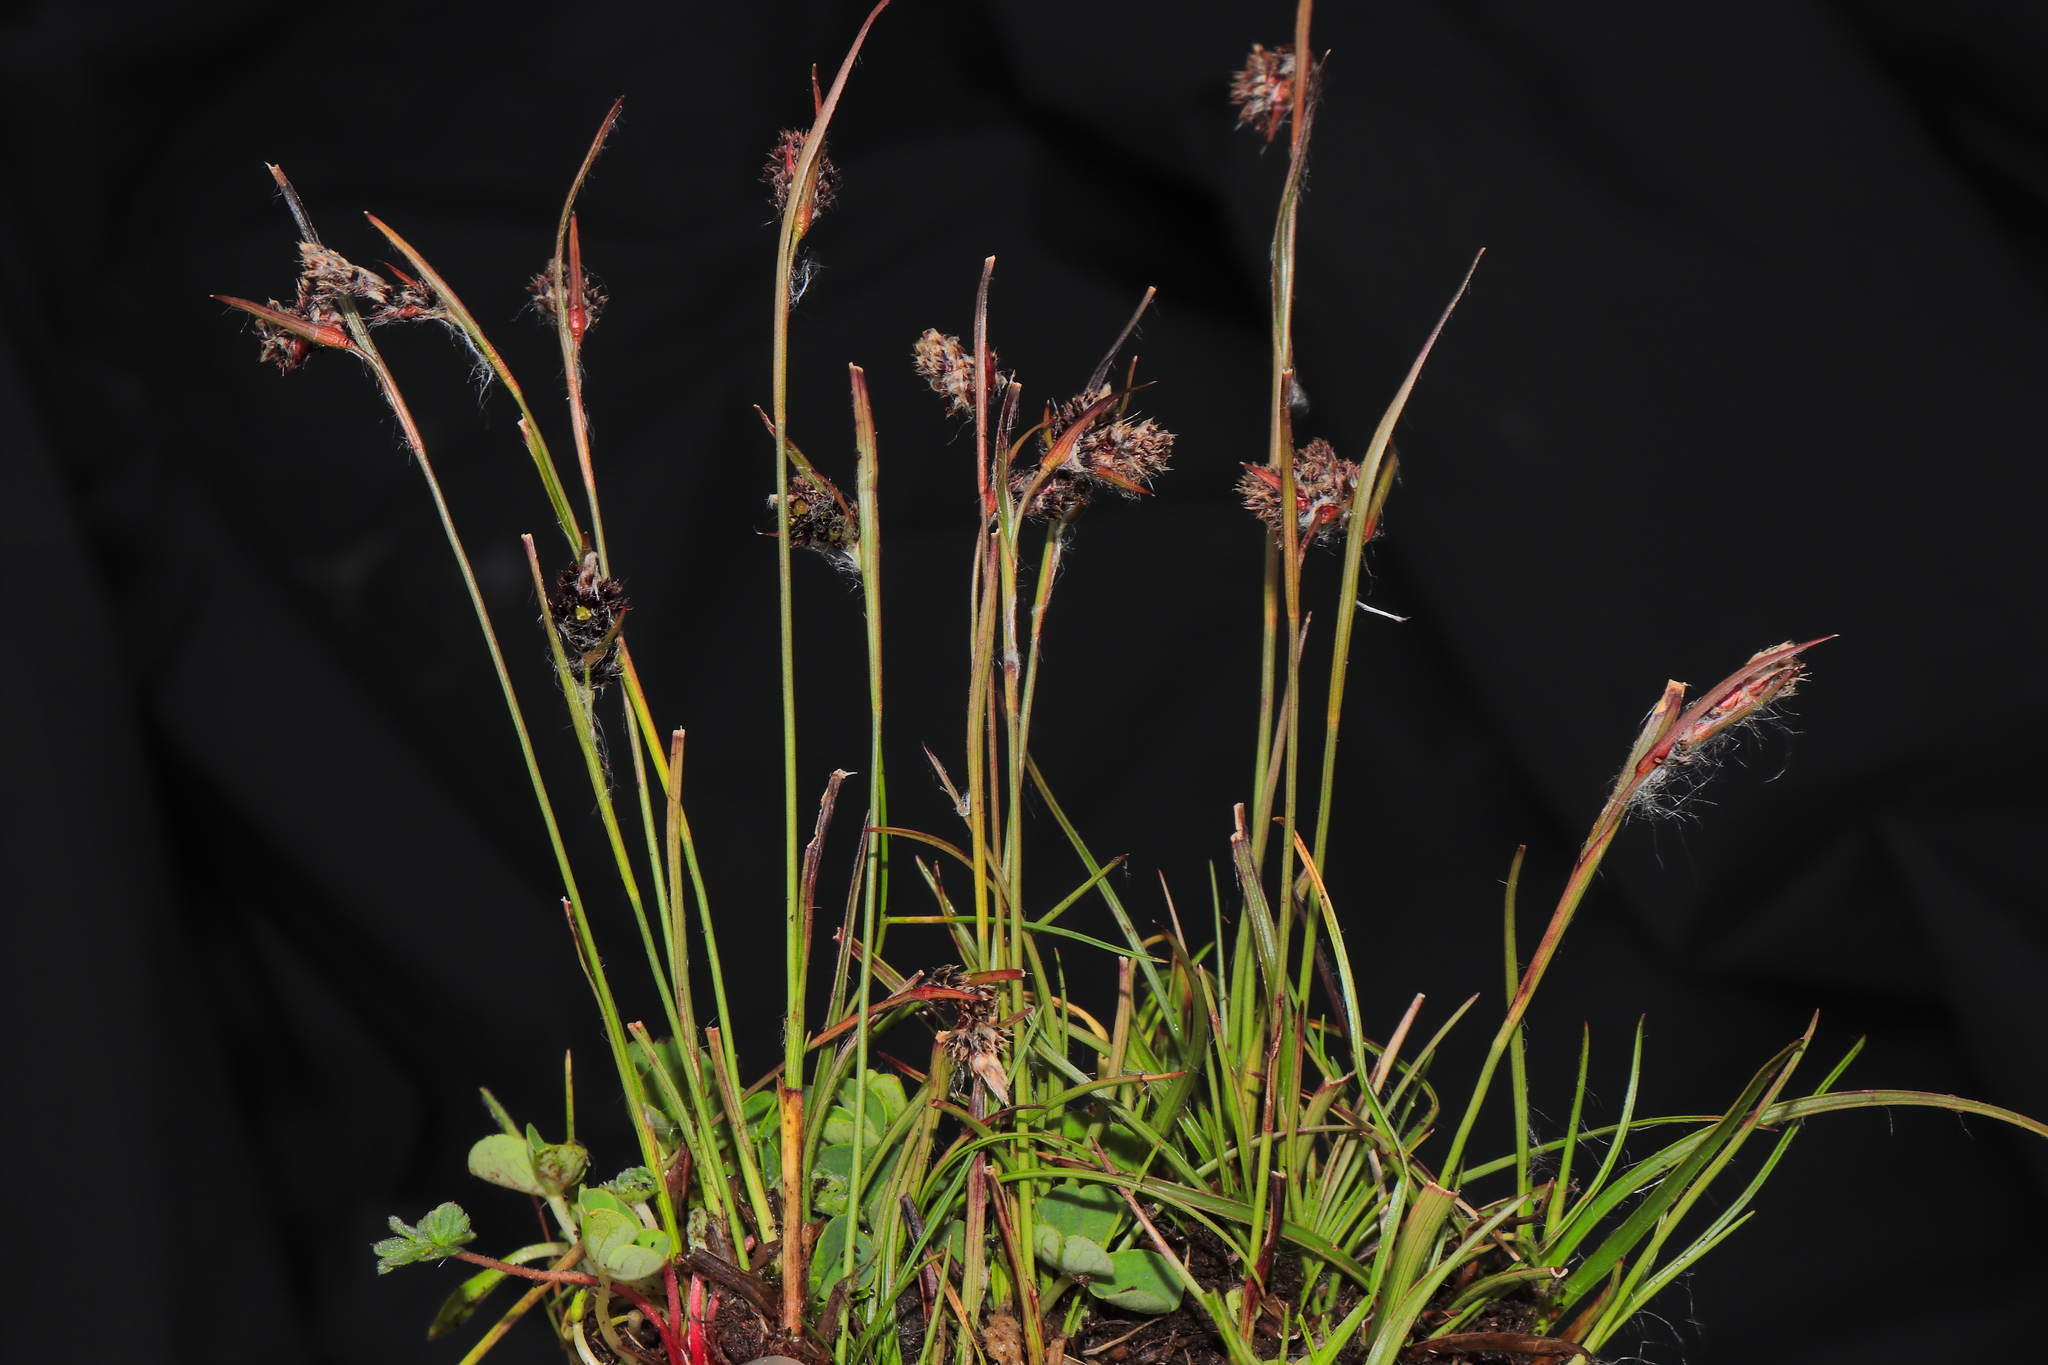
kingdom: Plantae
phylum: Tracheophyta
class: Liliopsida
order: Poales
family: Juncaceae
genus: Luzula
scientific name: Luzula racemosa
